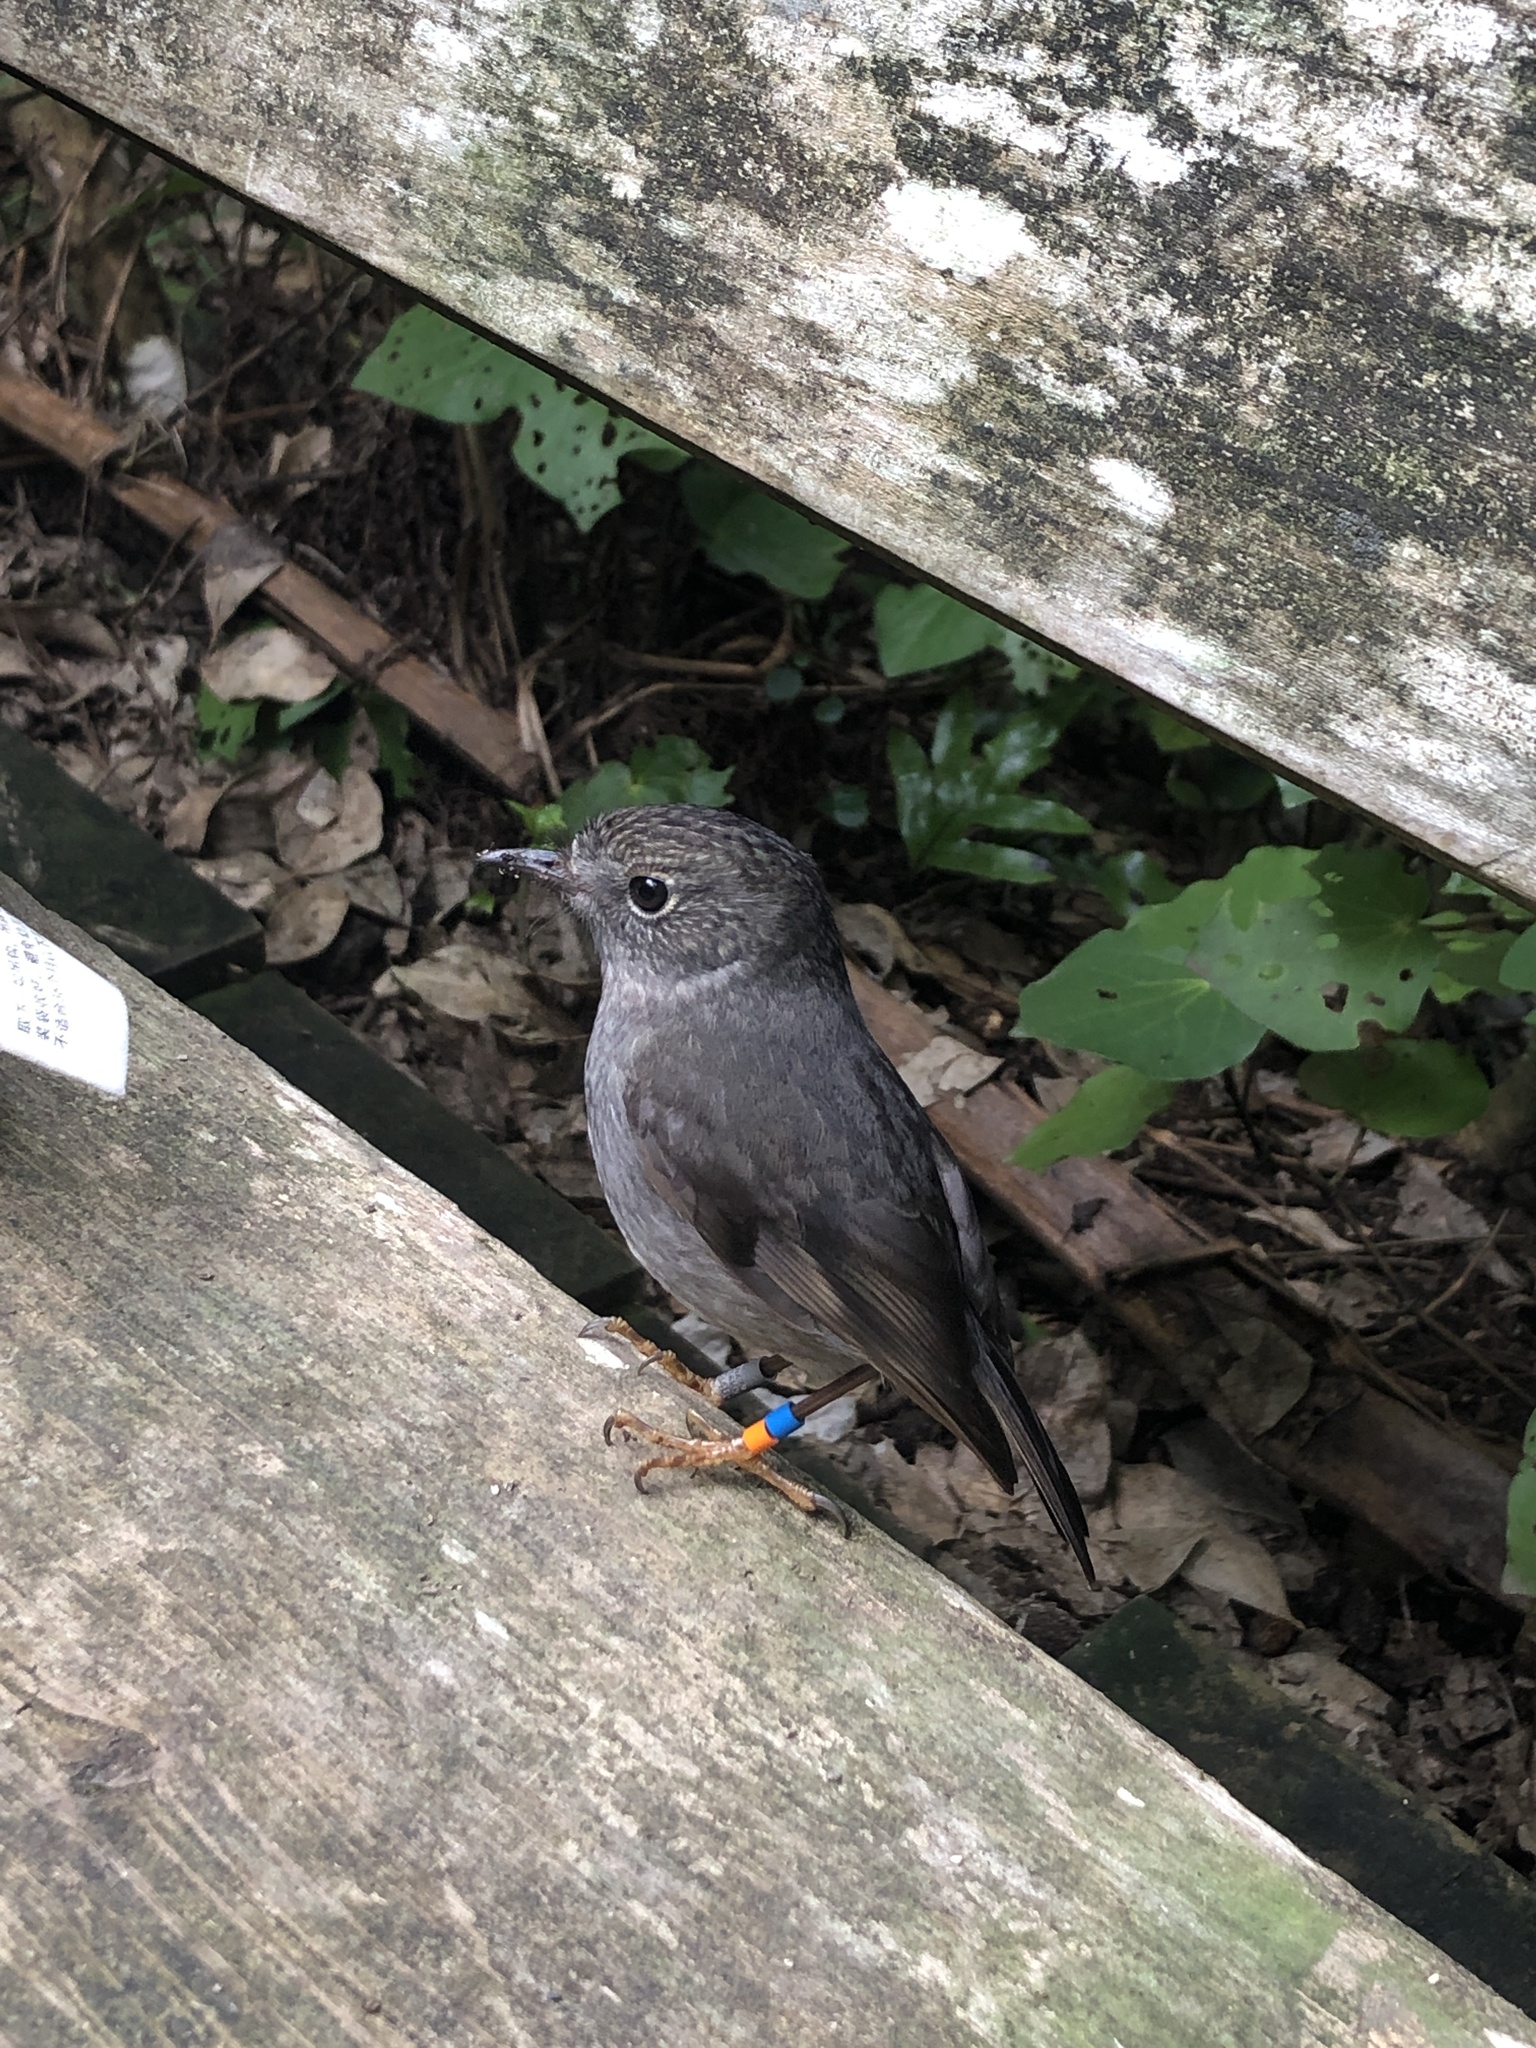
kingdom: Animalia
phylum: Chordata
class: Aves
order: Passeriformes
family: Petroicidae
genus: Petroica
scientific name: Petroica australis
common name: New zealand robin
